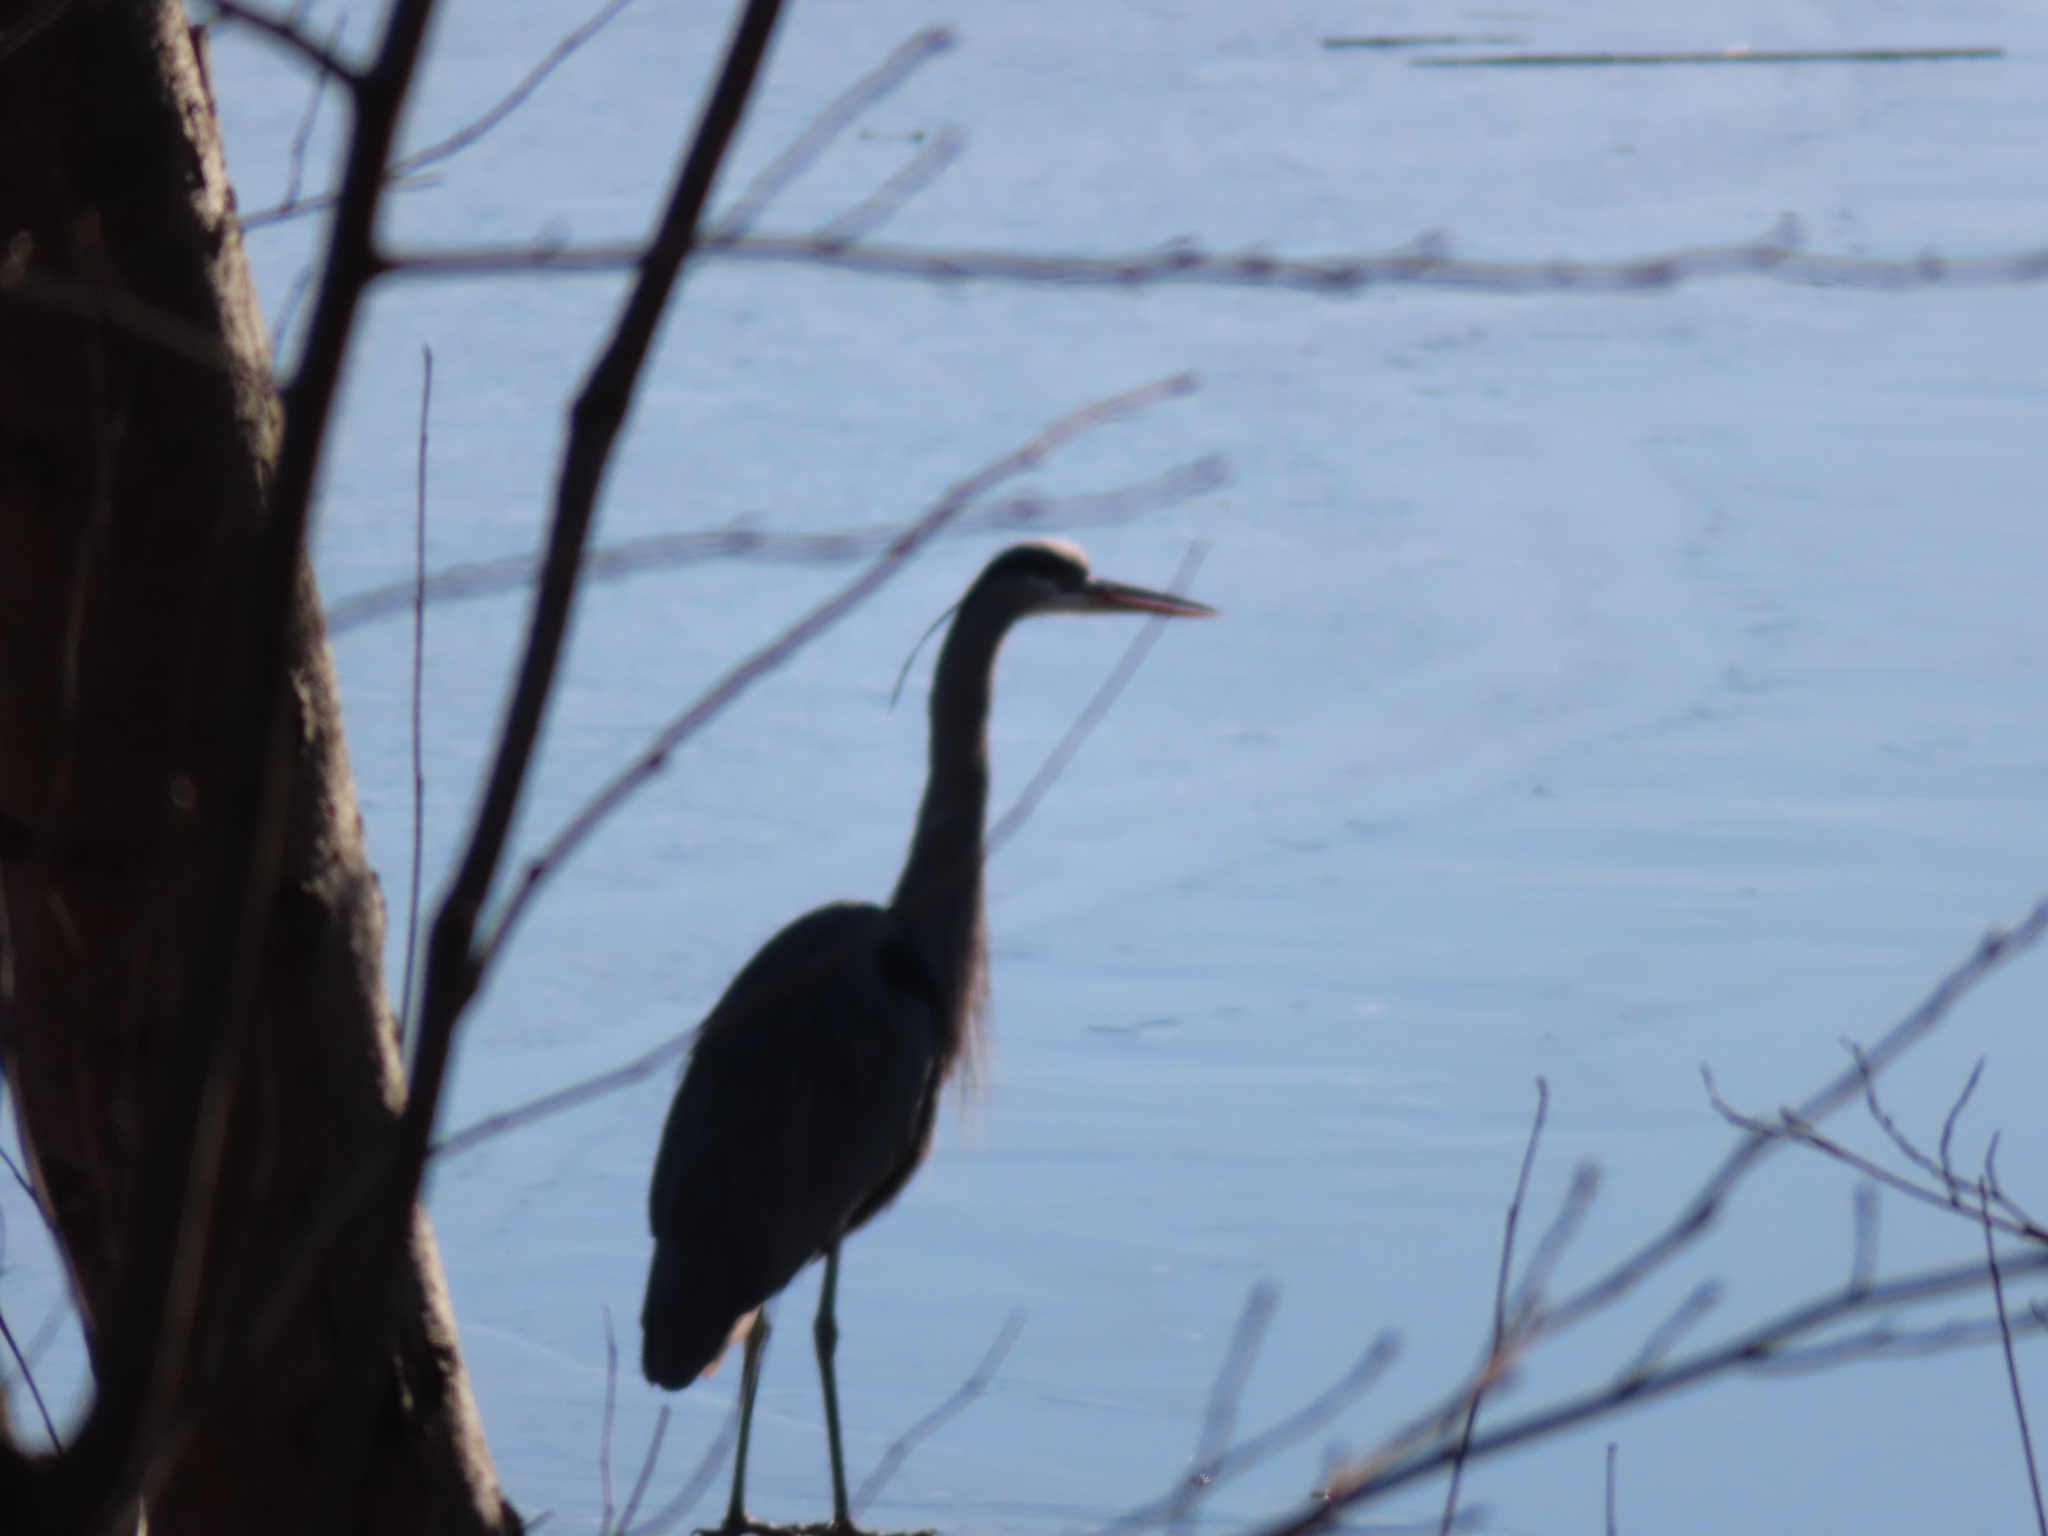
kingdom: Animalia
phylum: Chordata
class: Aves
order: Pelecaniformes
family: Ardeidae
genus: Ardea
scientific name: Ardea herodias
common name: Great blue heron
